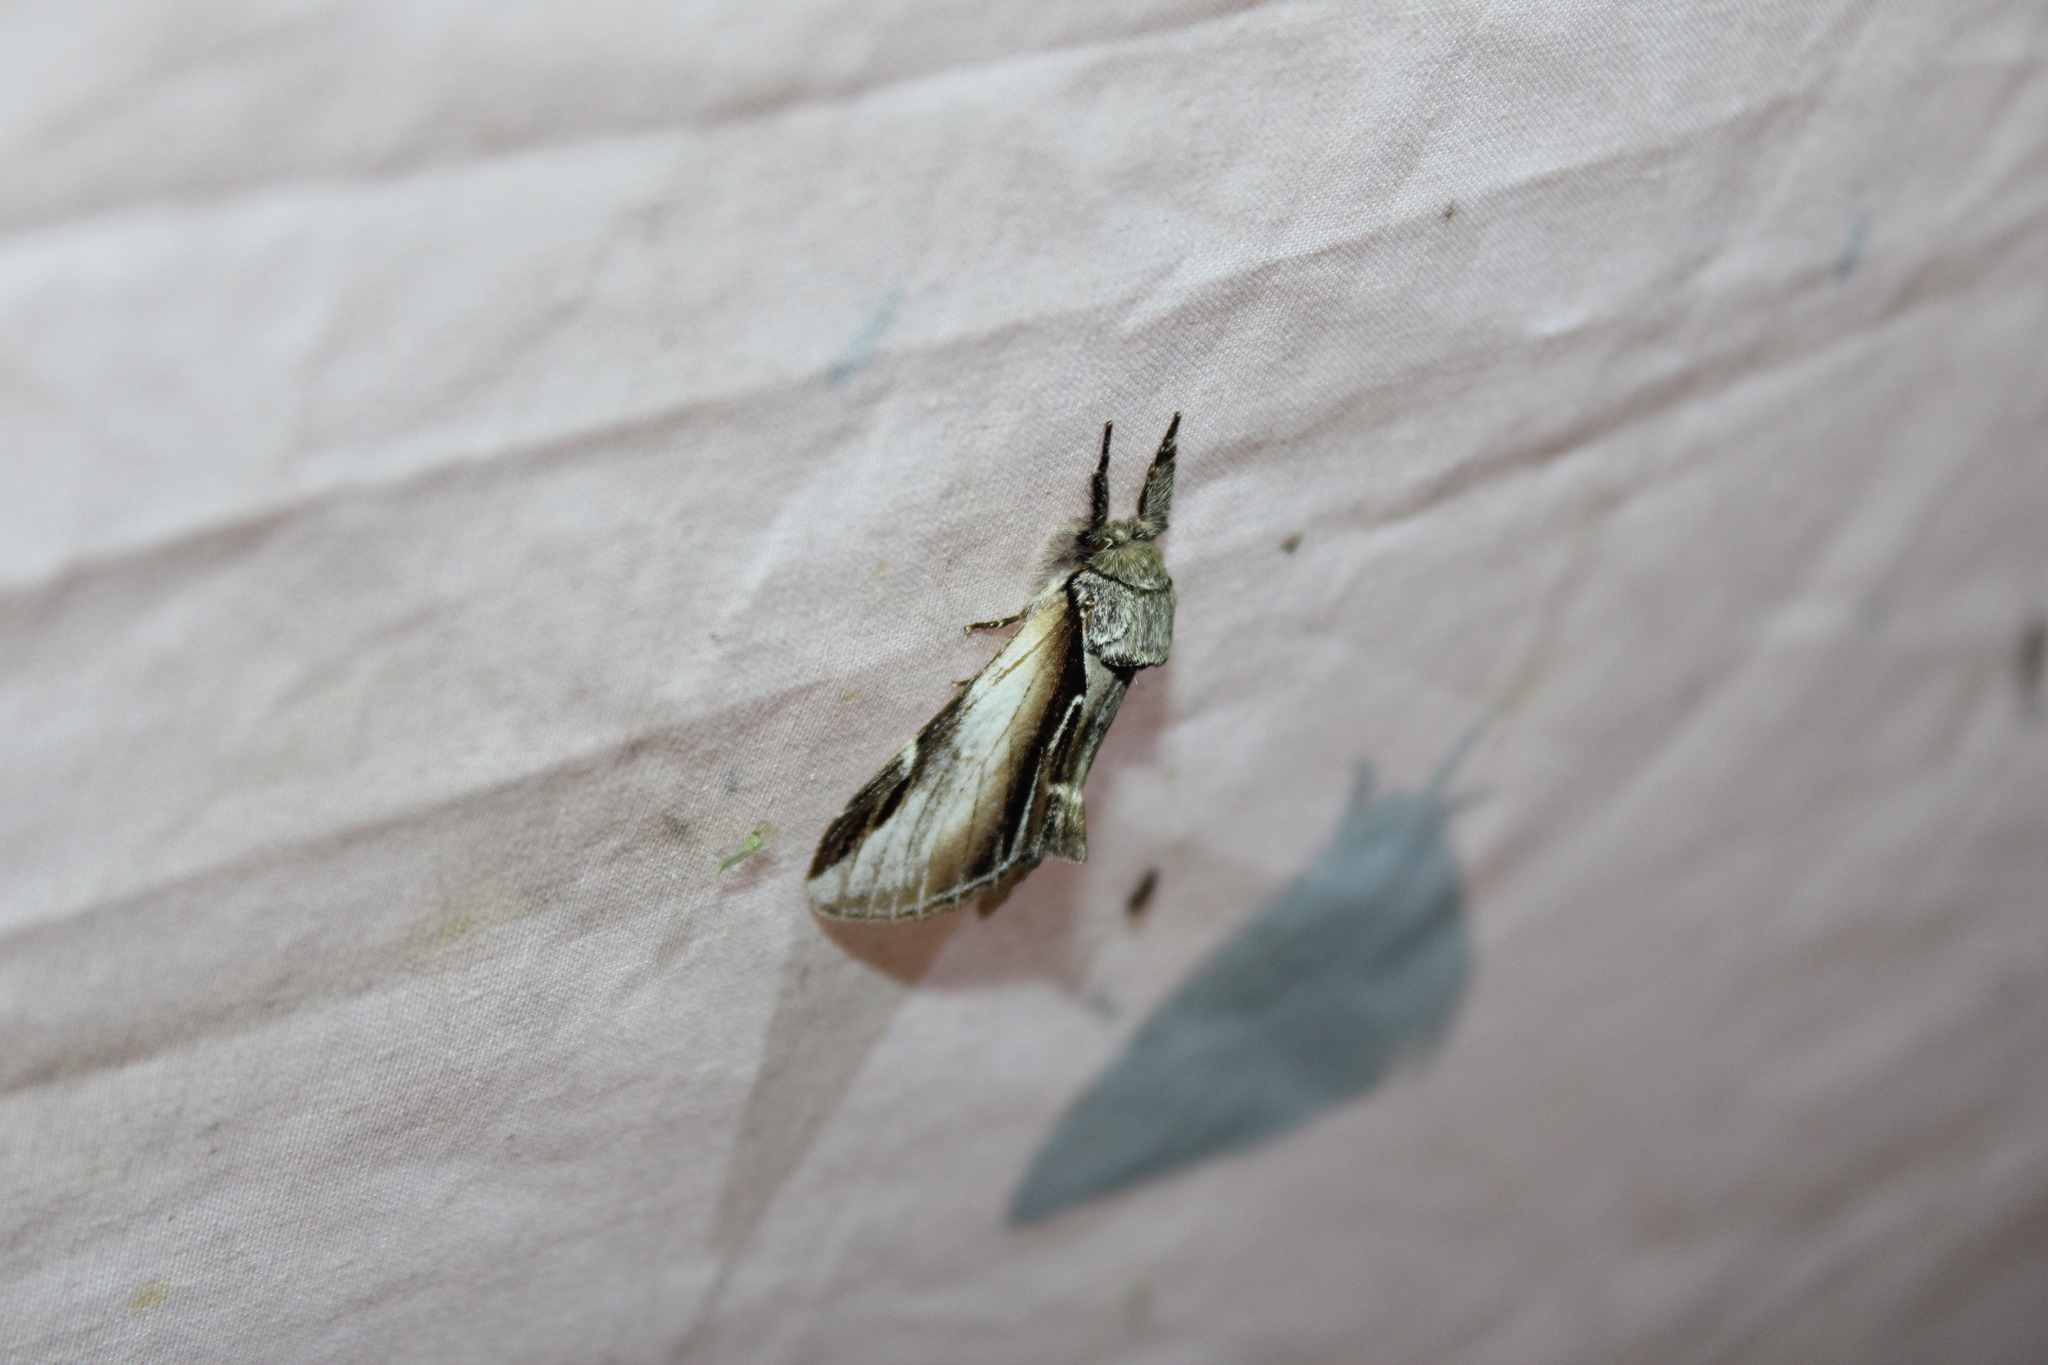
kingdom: Animalia
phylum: Arthropoda
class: Insecta
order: Lepidoptera
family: Notodontidae
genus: Pheosia
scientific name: Pheosia rimosa
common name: Black-rimmed prominent
